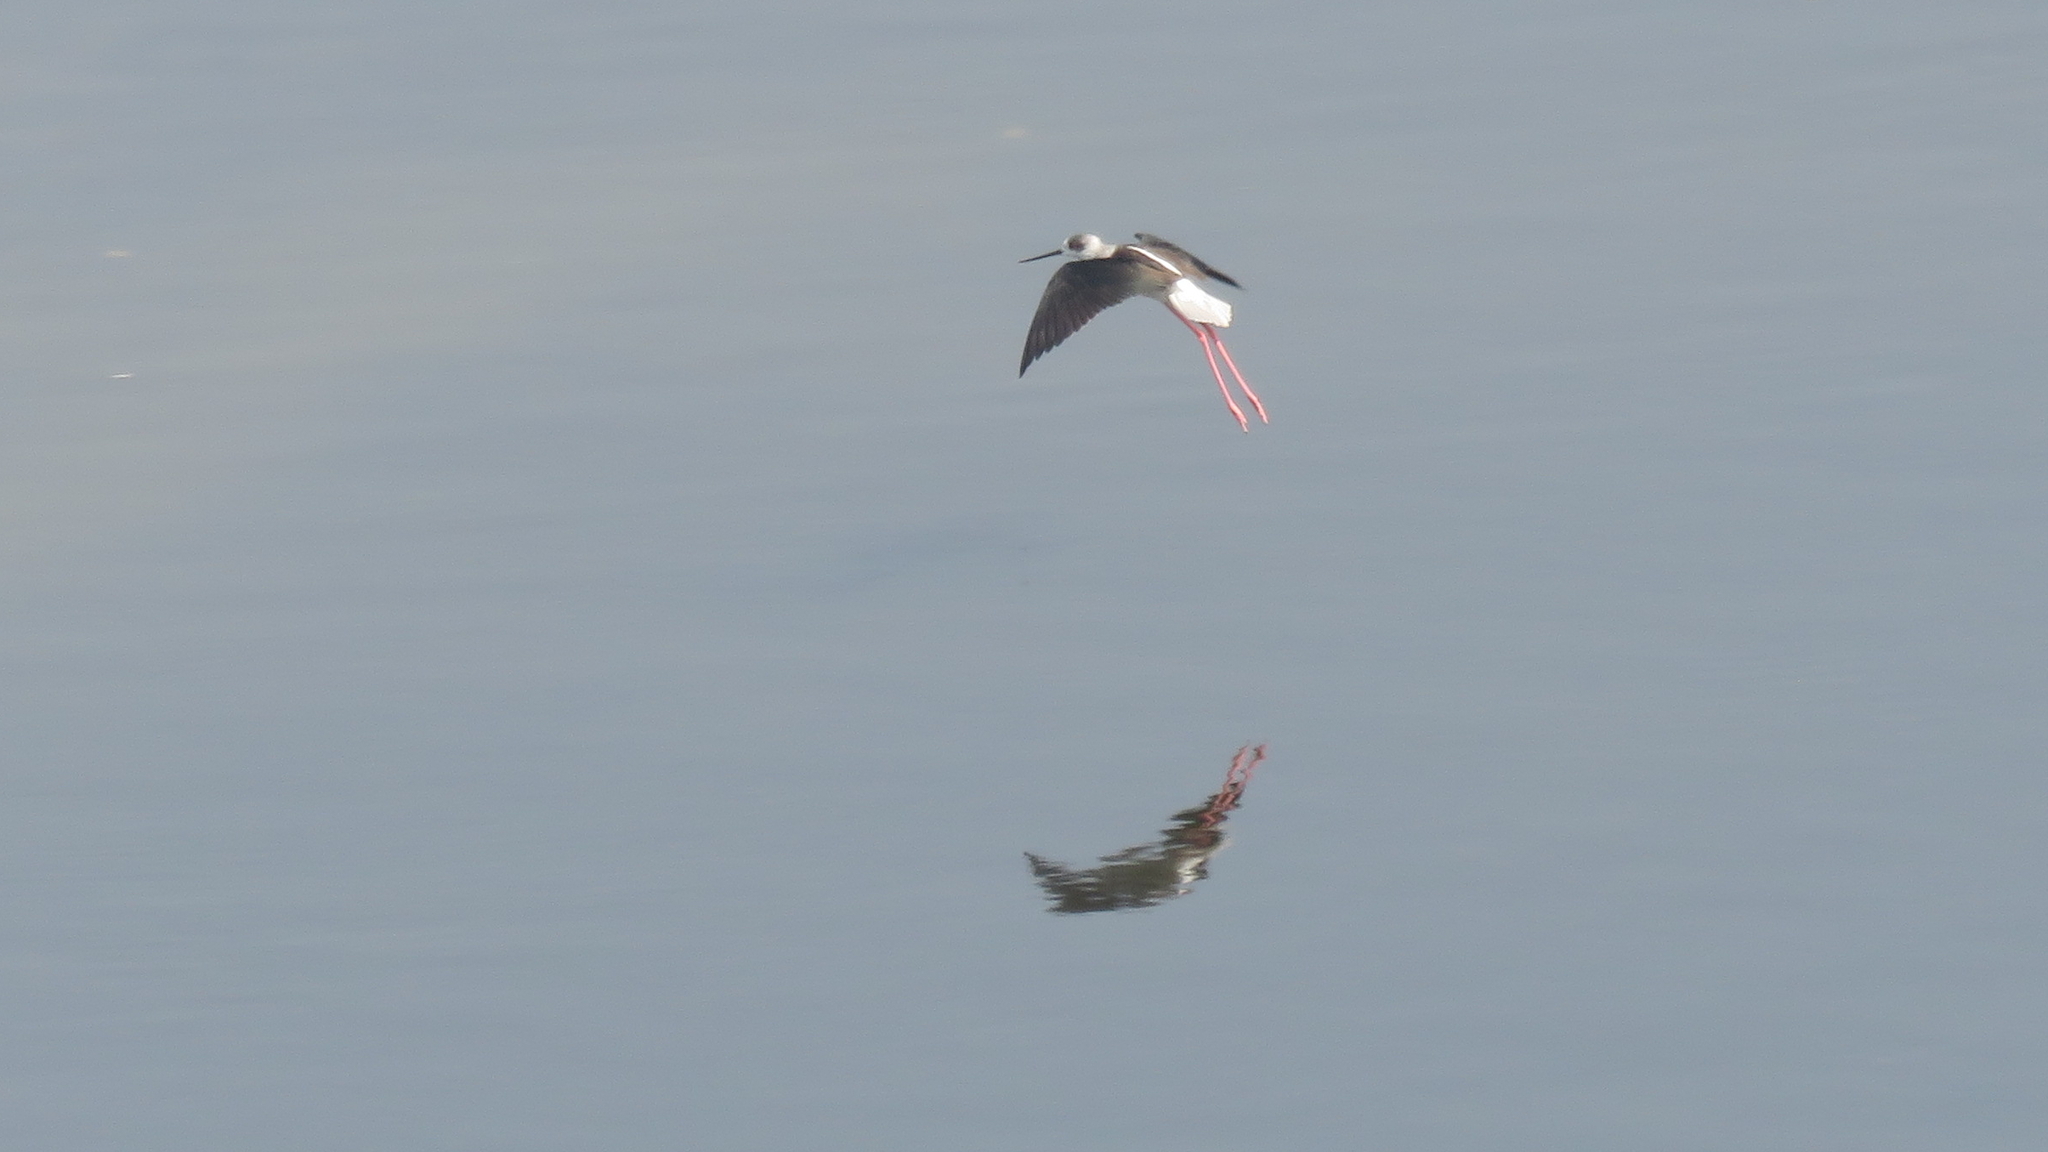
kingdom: Animalia
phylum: Chordata
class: Aves
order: Charadriiformes
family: Recurvirostridae
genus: Himantopus
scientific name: Himantopus himantopus
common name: Black-winged stilt
